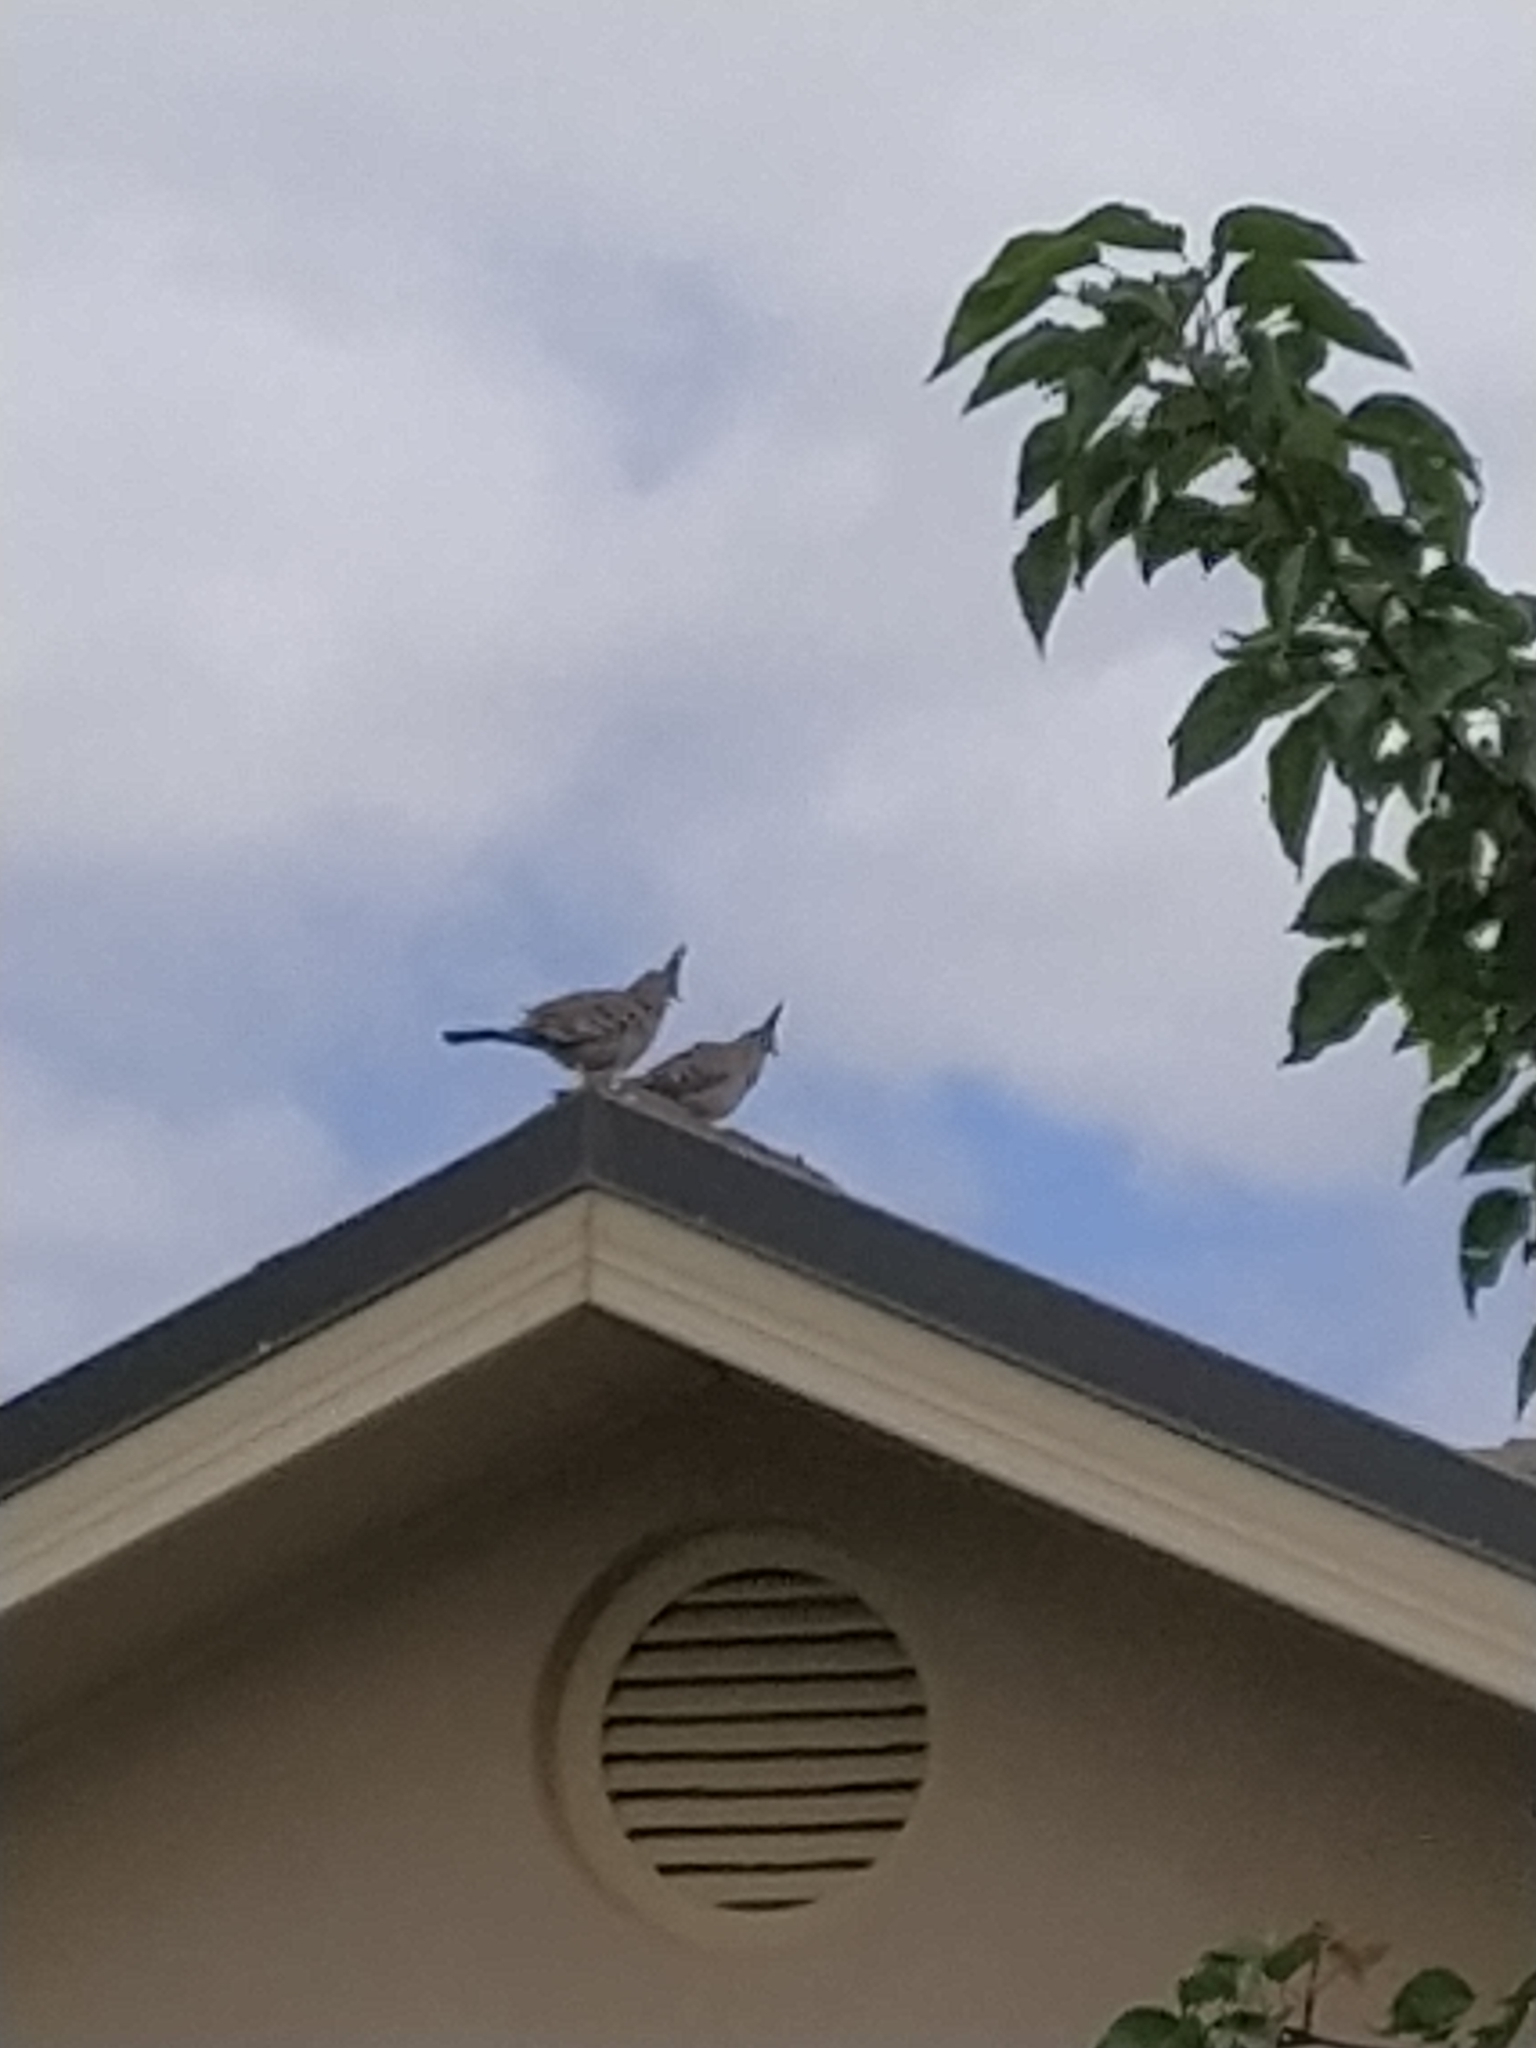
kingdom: Animalia
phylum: Chordata
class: Aves
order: Columbiformes
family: Columbidae
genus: Ocyphaps
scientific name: Ocyphaps lophotes
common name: Crested pigeon
